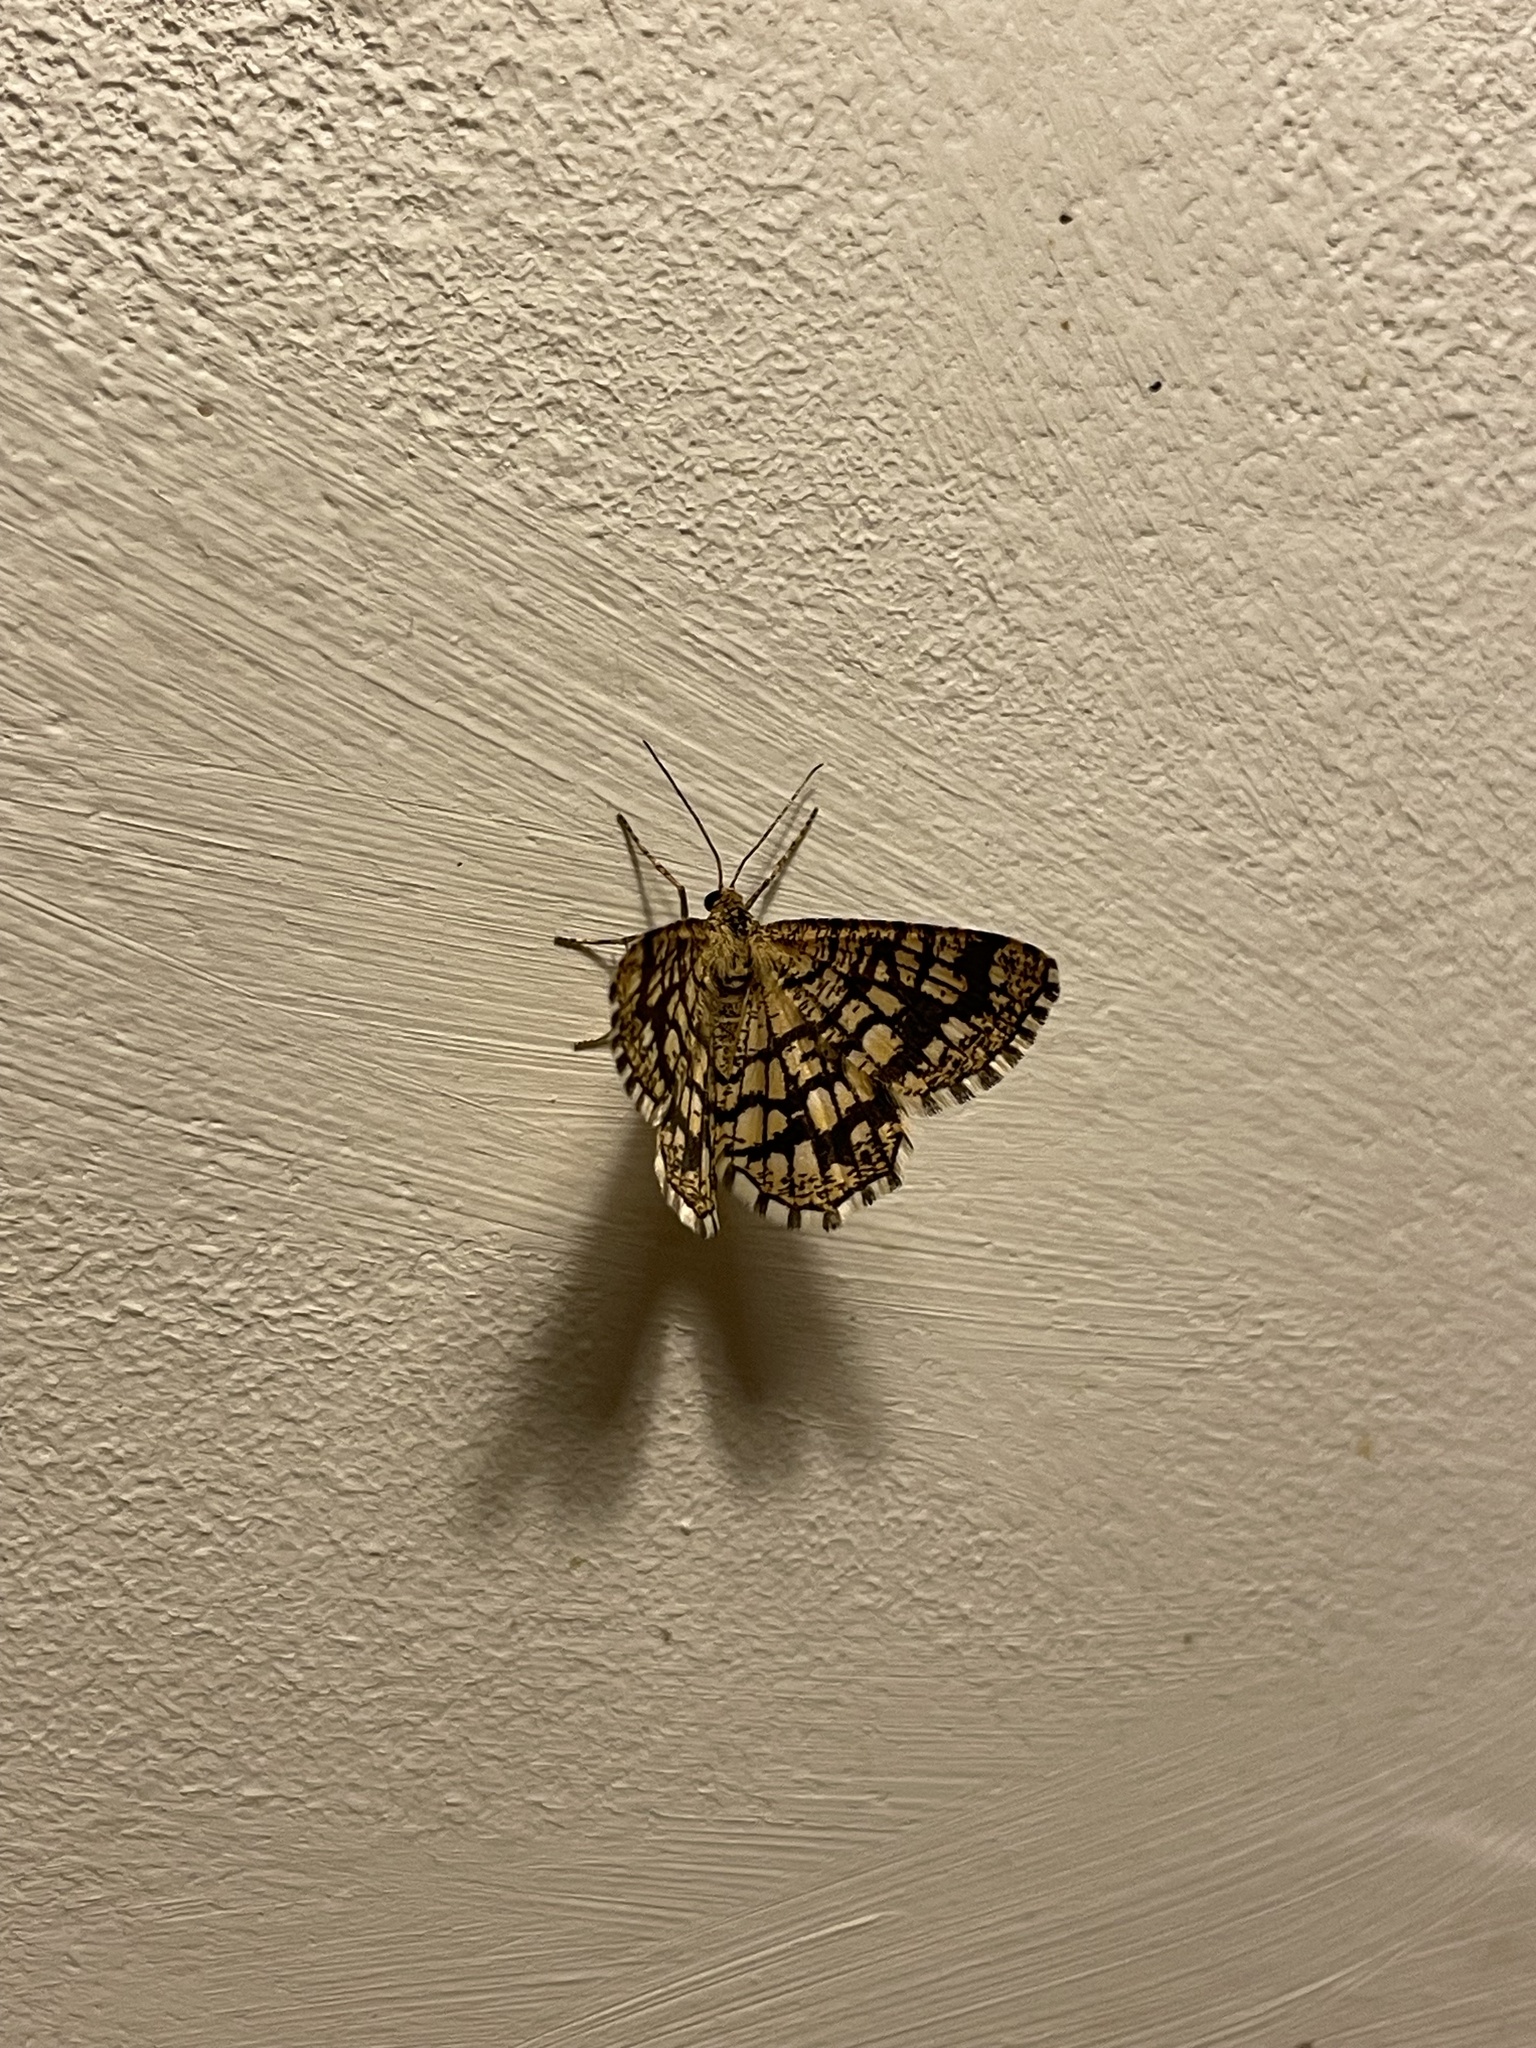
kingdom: Animalia
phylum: Arthropoda
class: Insecta
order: Lepidoptera
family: Geometridae
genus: Chiasmia
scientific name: Chiasmia clathrata
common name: Latticed heath
